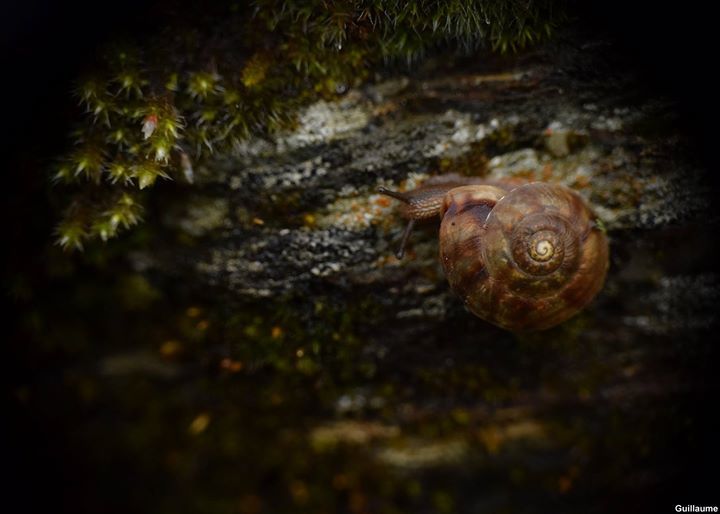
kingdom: Animalia
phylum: Mollusca
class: Gastropoda
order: Stylommatophora
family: Helicidae
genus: Helicigona
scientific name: Helicigona lapicida
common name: Lapidary snail
